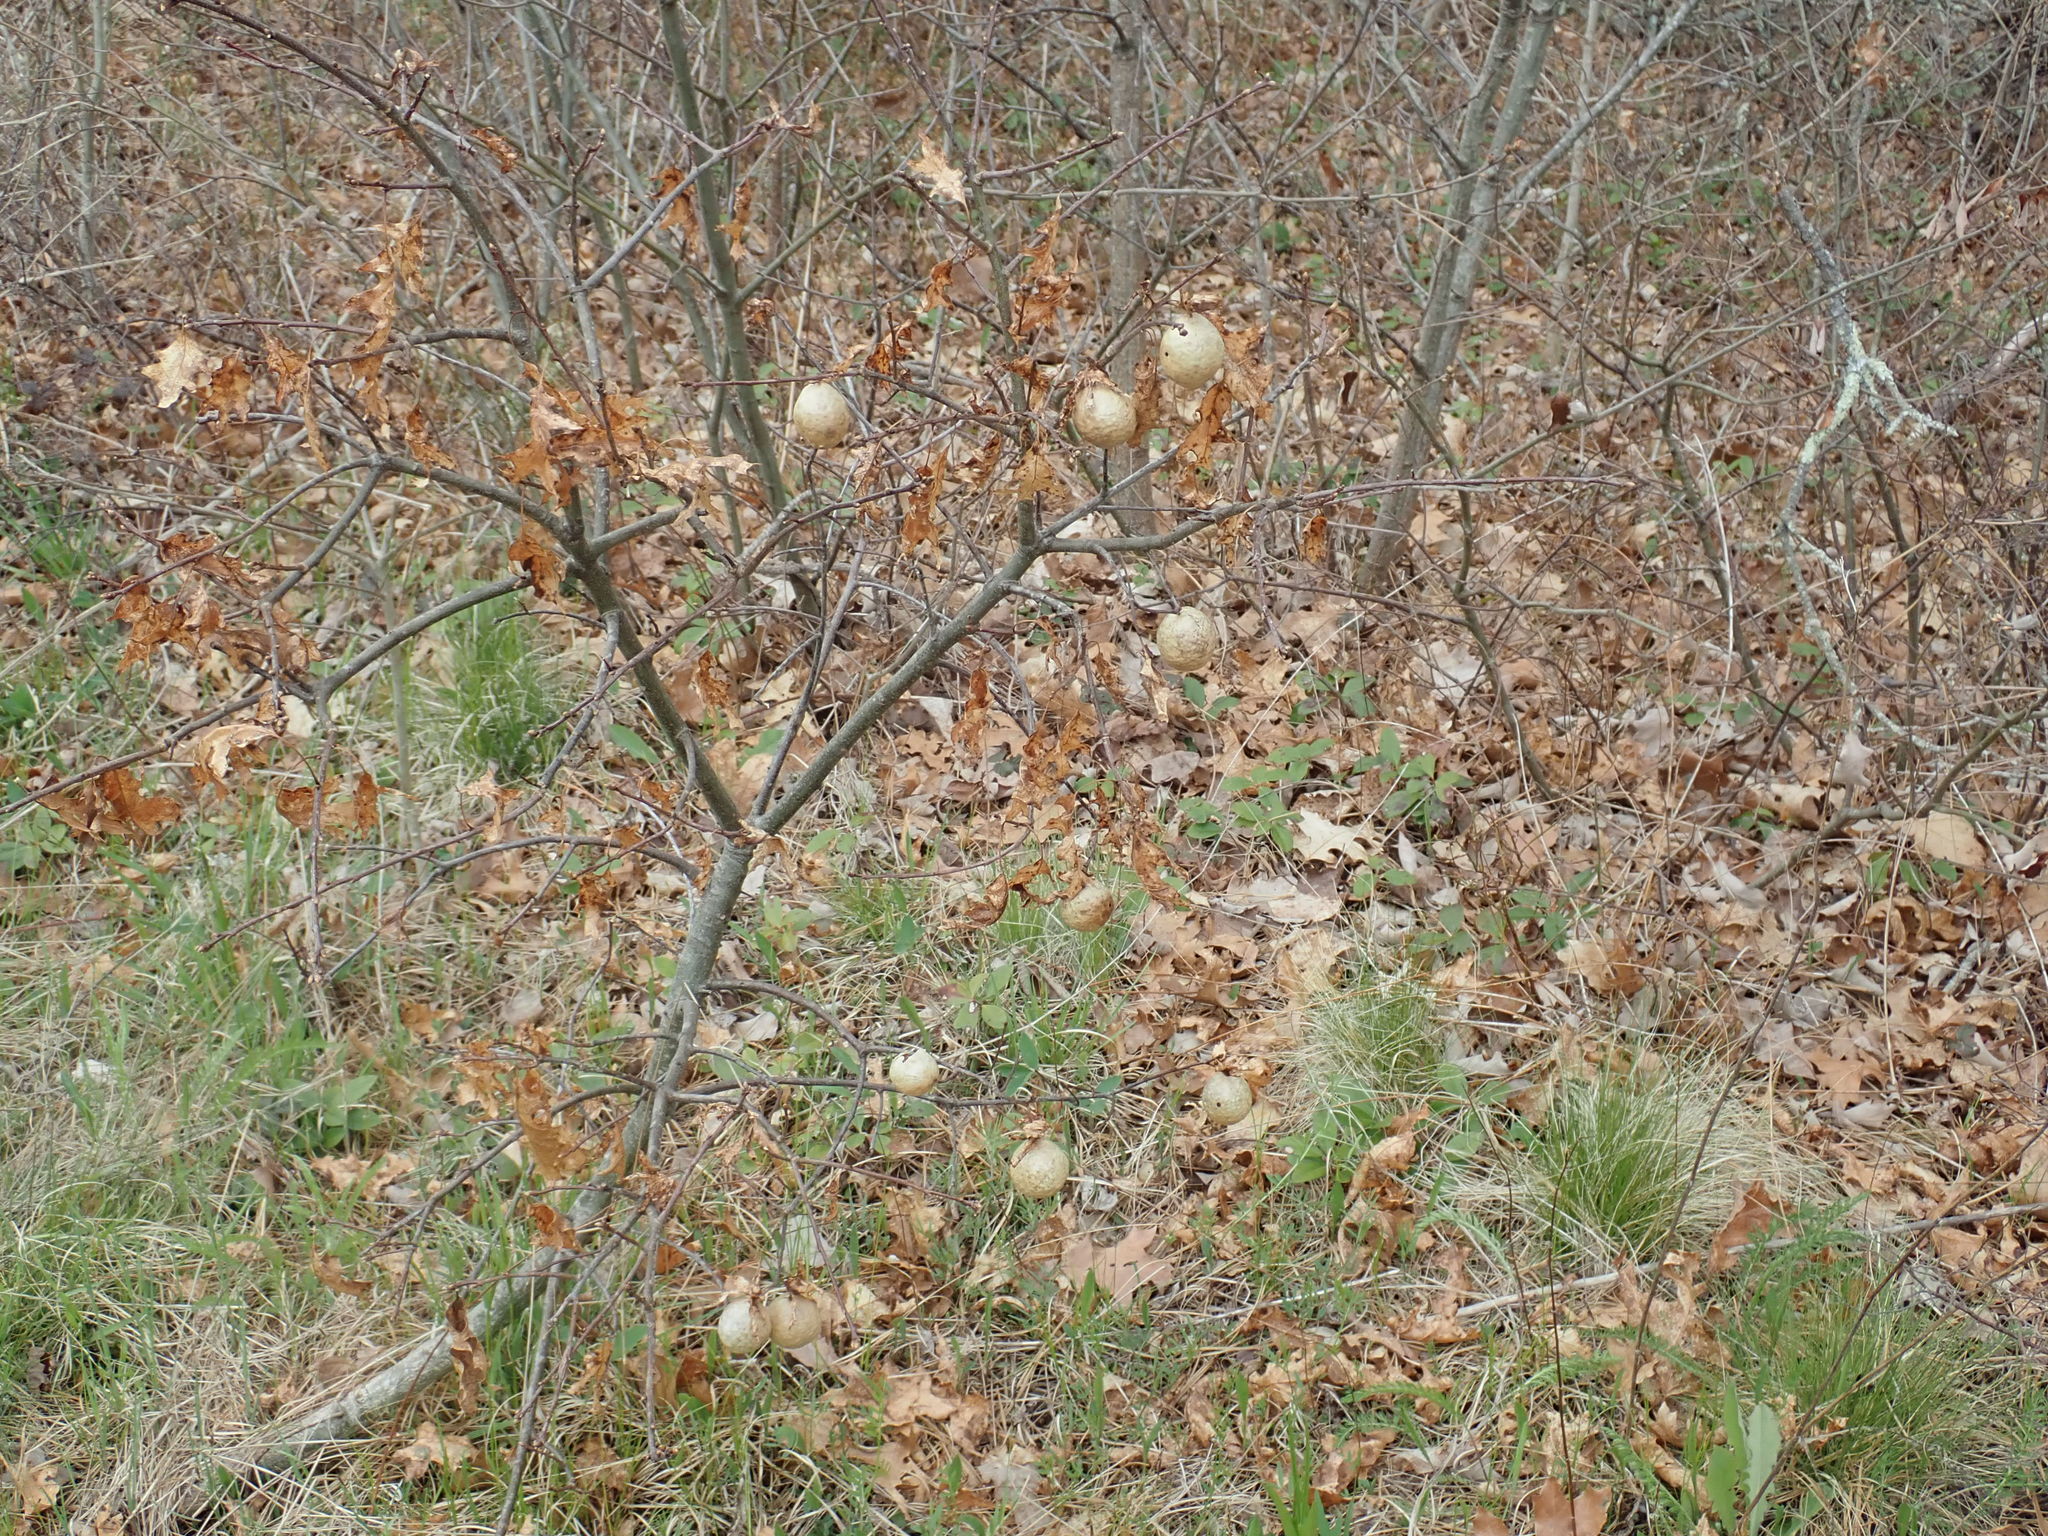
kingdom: Animalia
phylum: Arthropoda
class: Insecta
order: Hymenoptera
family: Cynipidae
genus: Amphibolips
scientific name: Amphibolips
